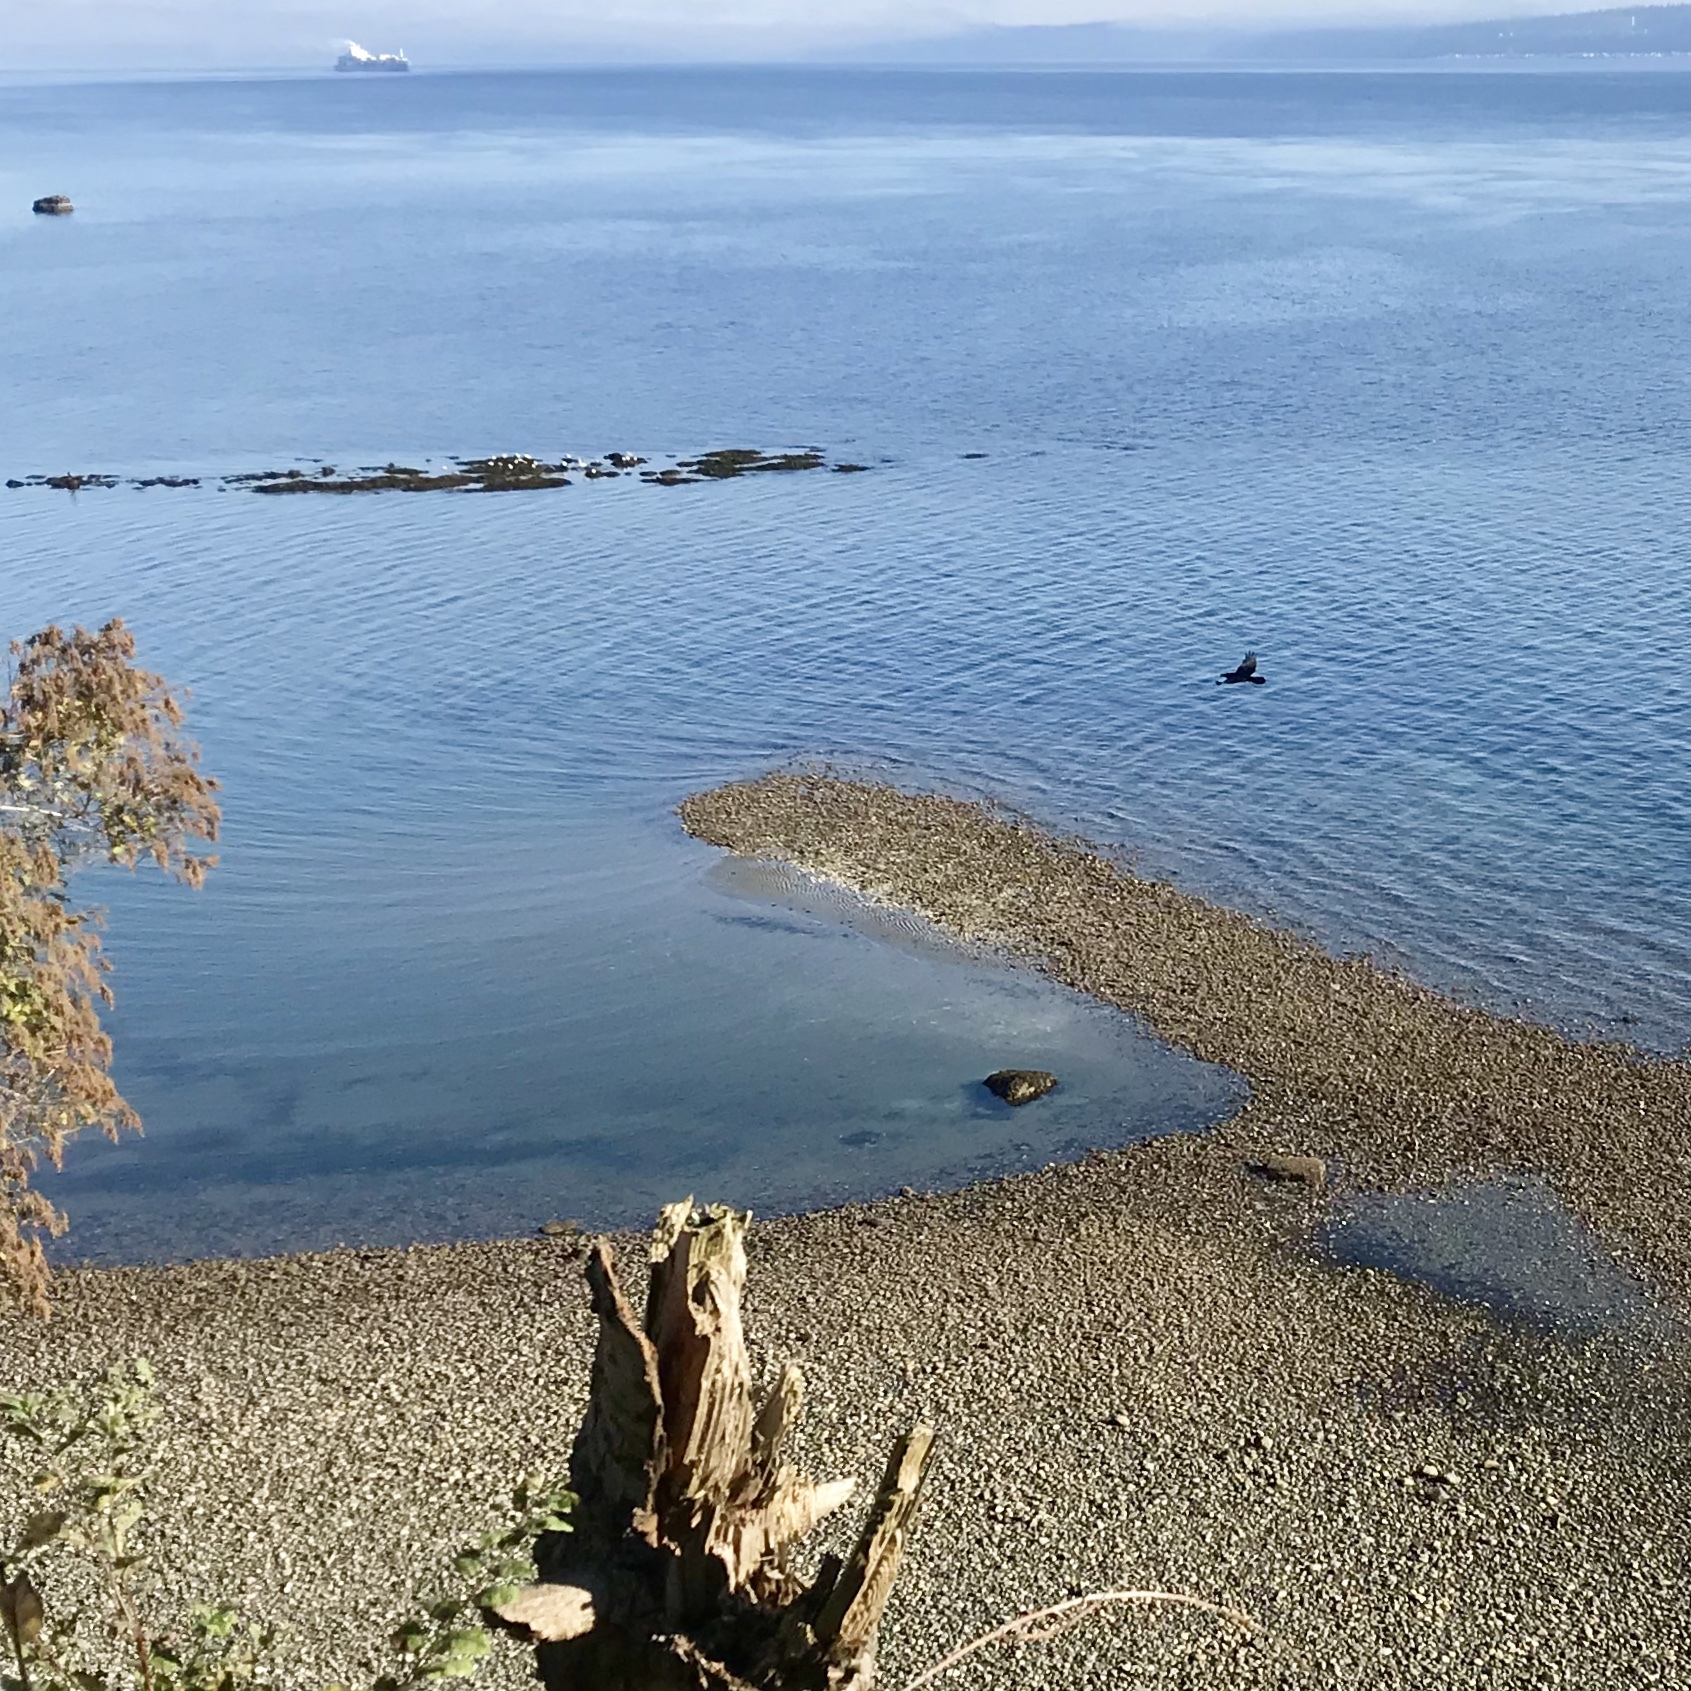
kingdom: Animalia
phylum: Chordata
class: Aves
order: Passeriformes
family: Corvidae
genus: Corvus
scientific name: Corvus corax
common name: Common raven
